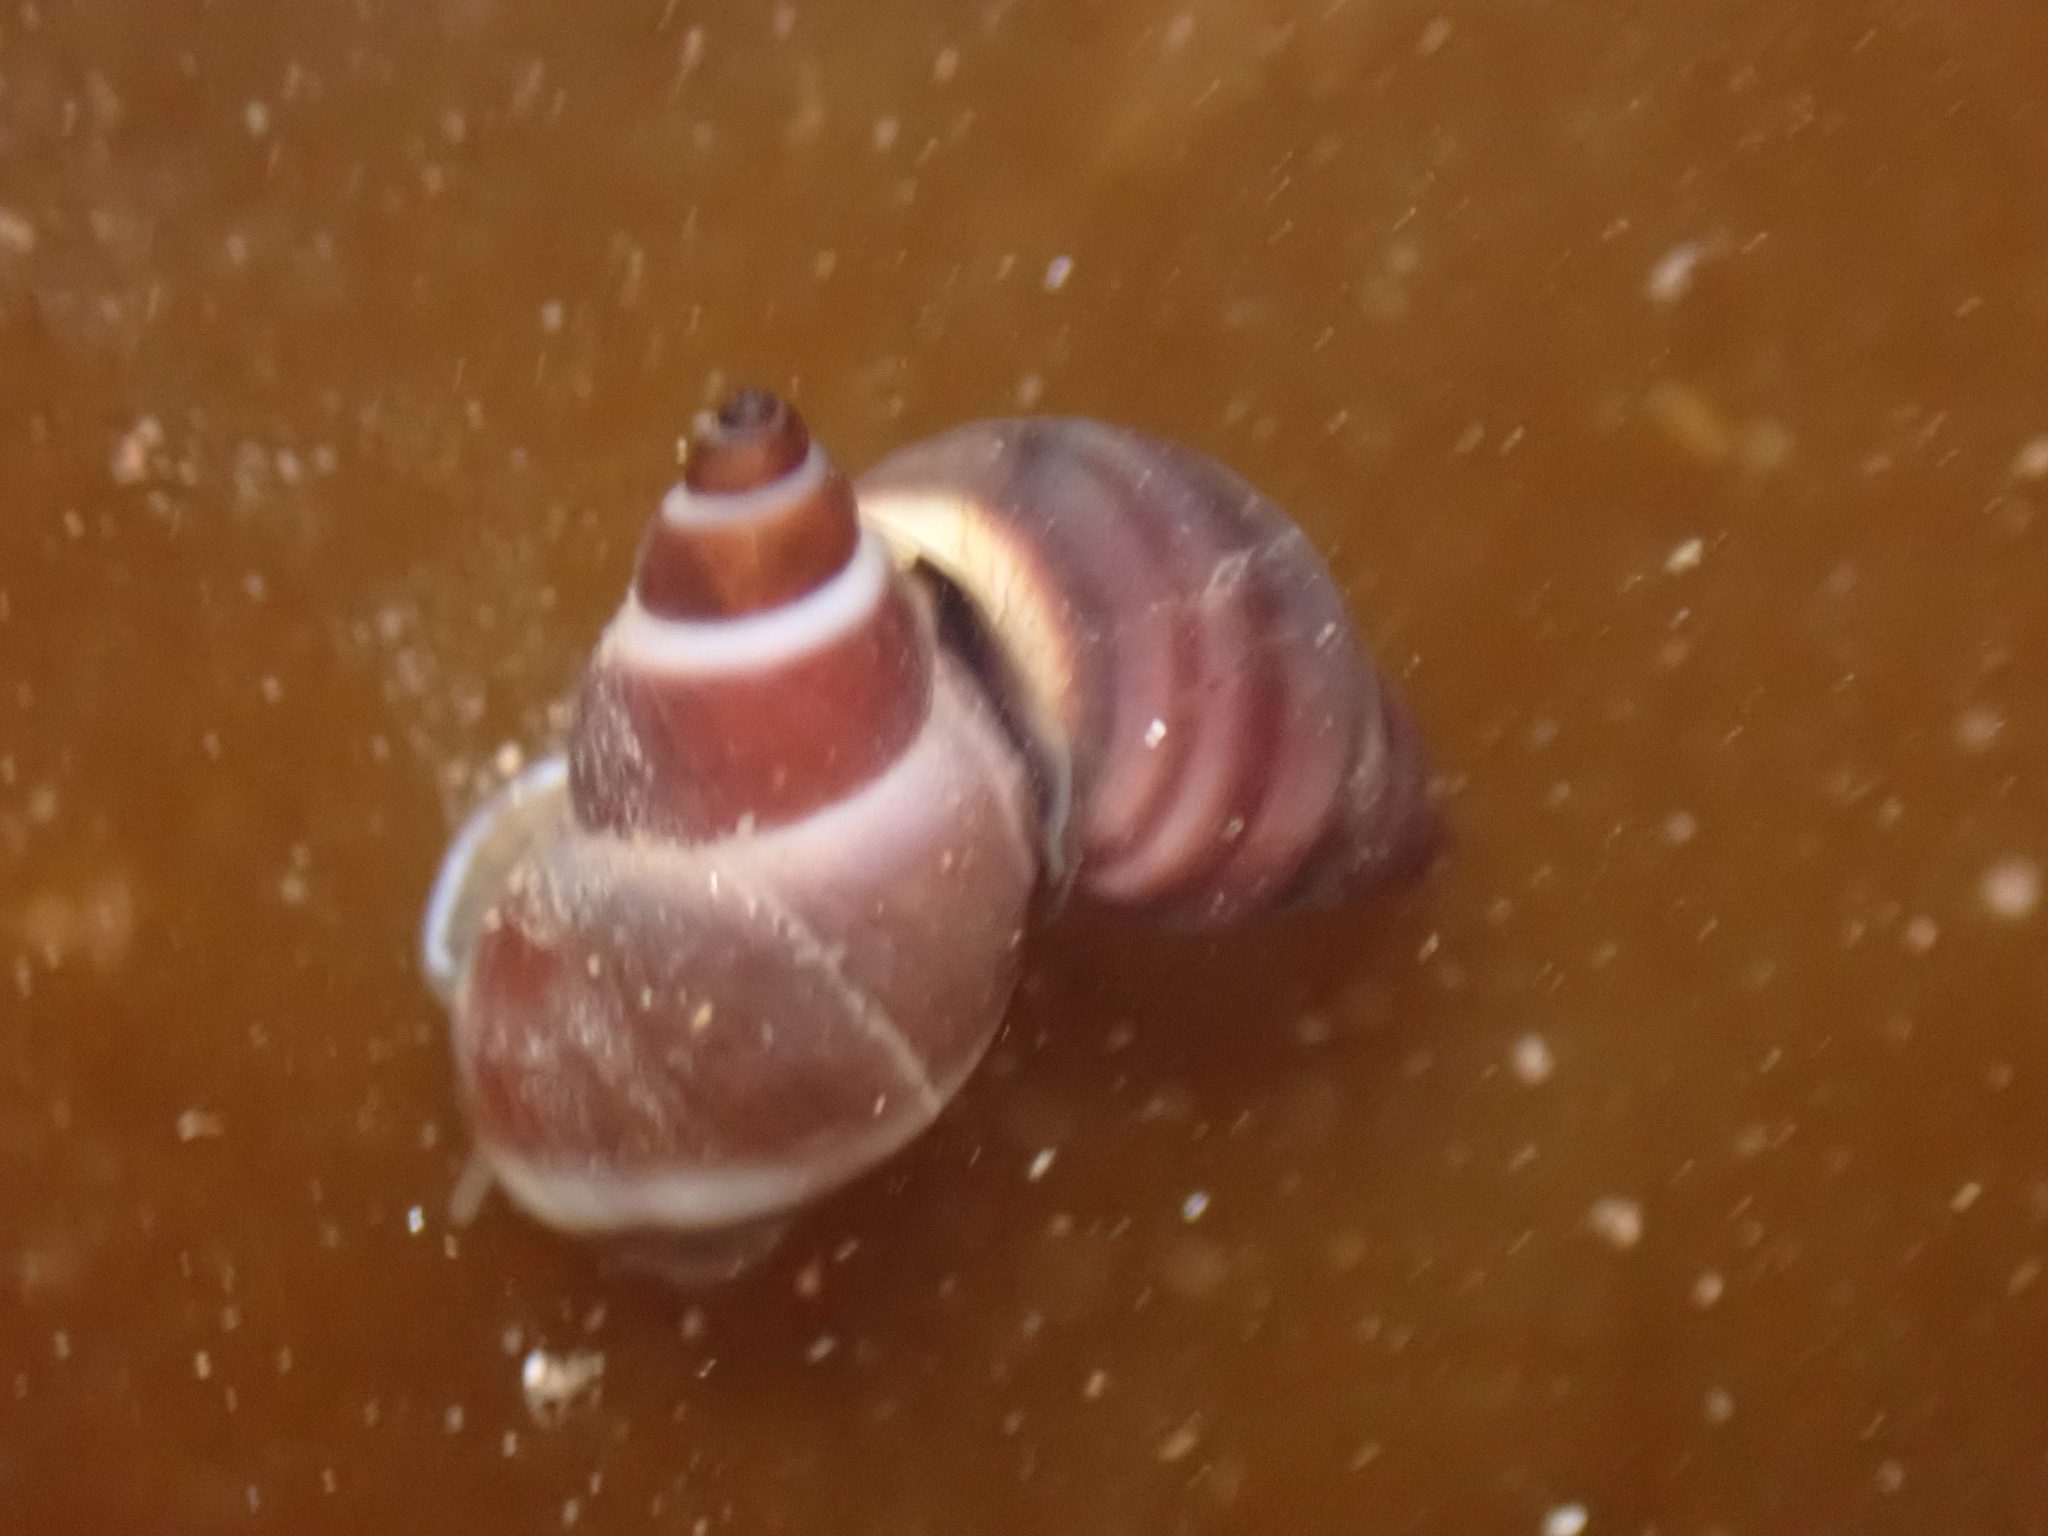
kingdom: Animalia
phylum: Mollusca
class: Gastropoda
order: Littorinimorpha
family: Littorinidae
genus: Lacuna
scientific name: Lacuna vincta
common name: Banded chink shell
